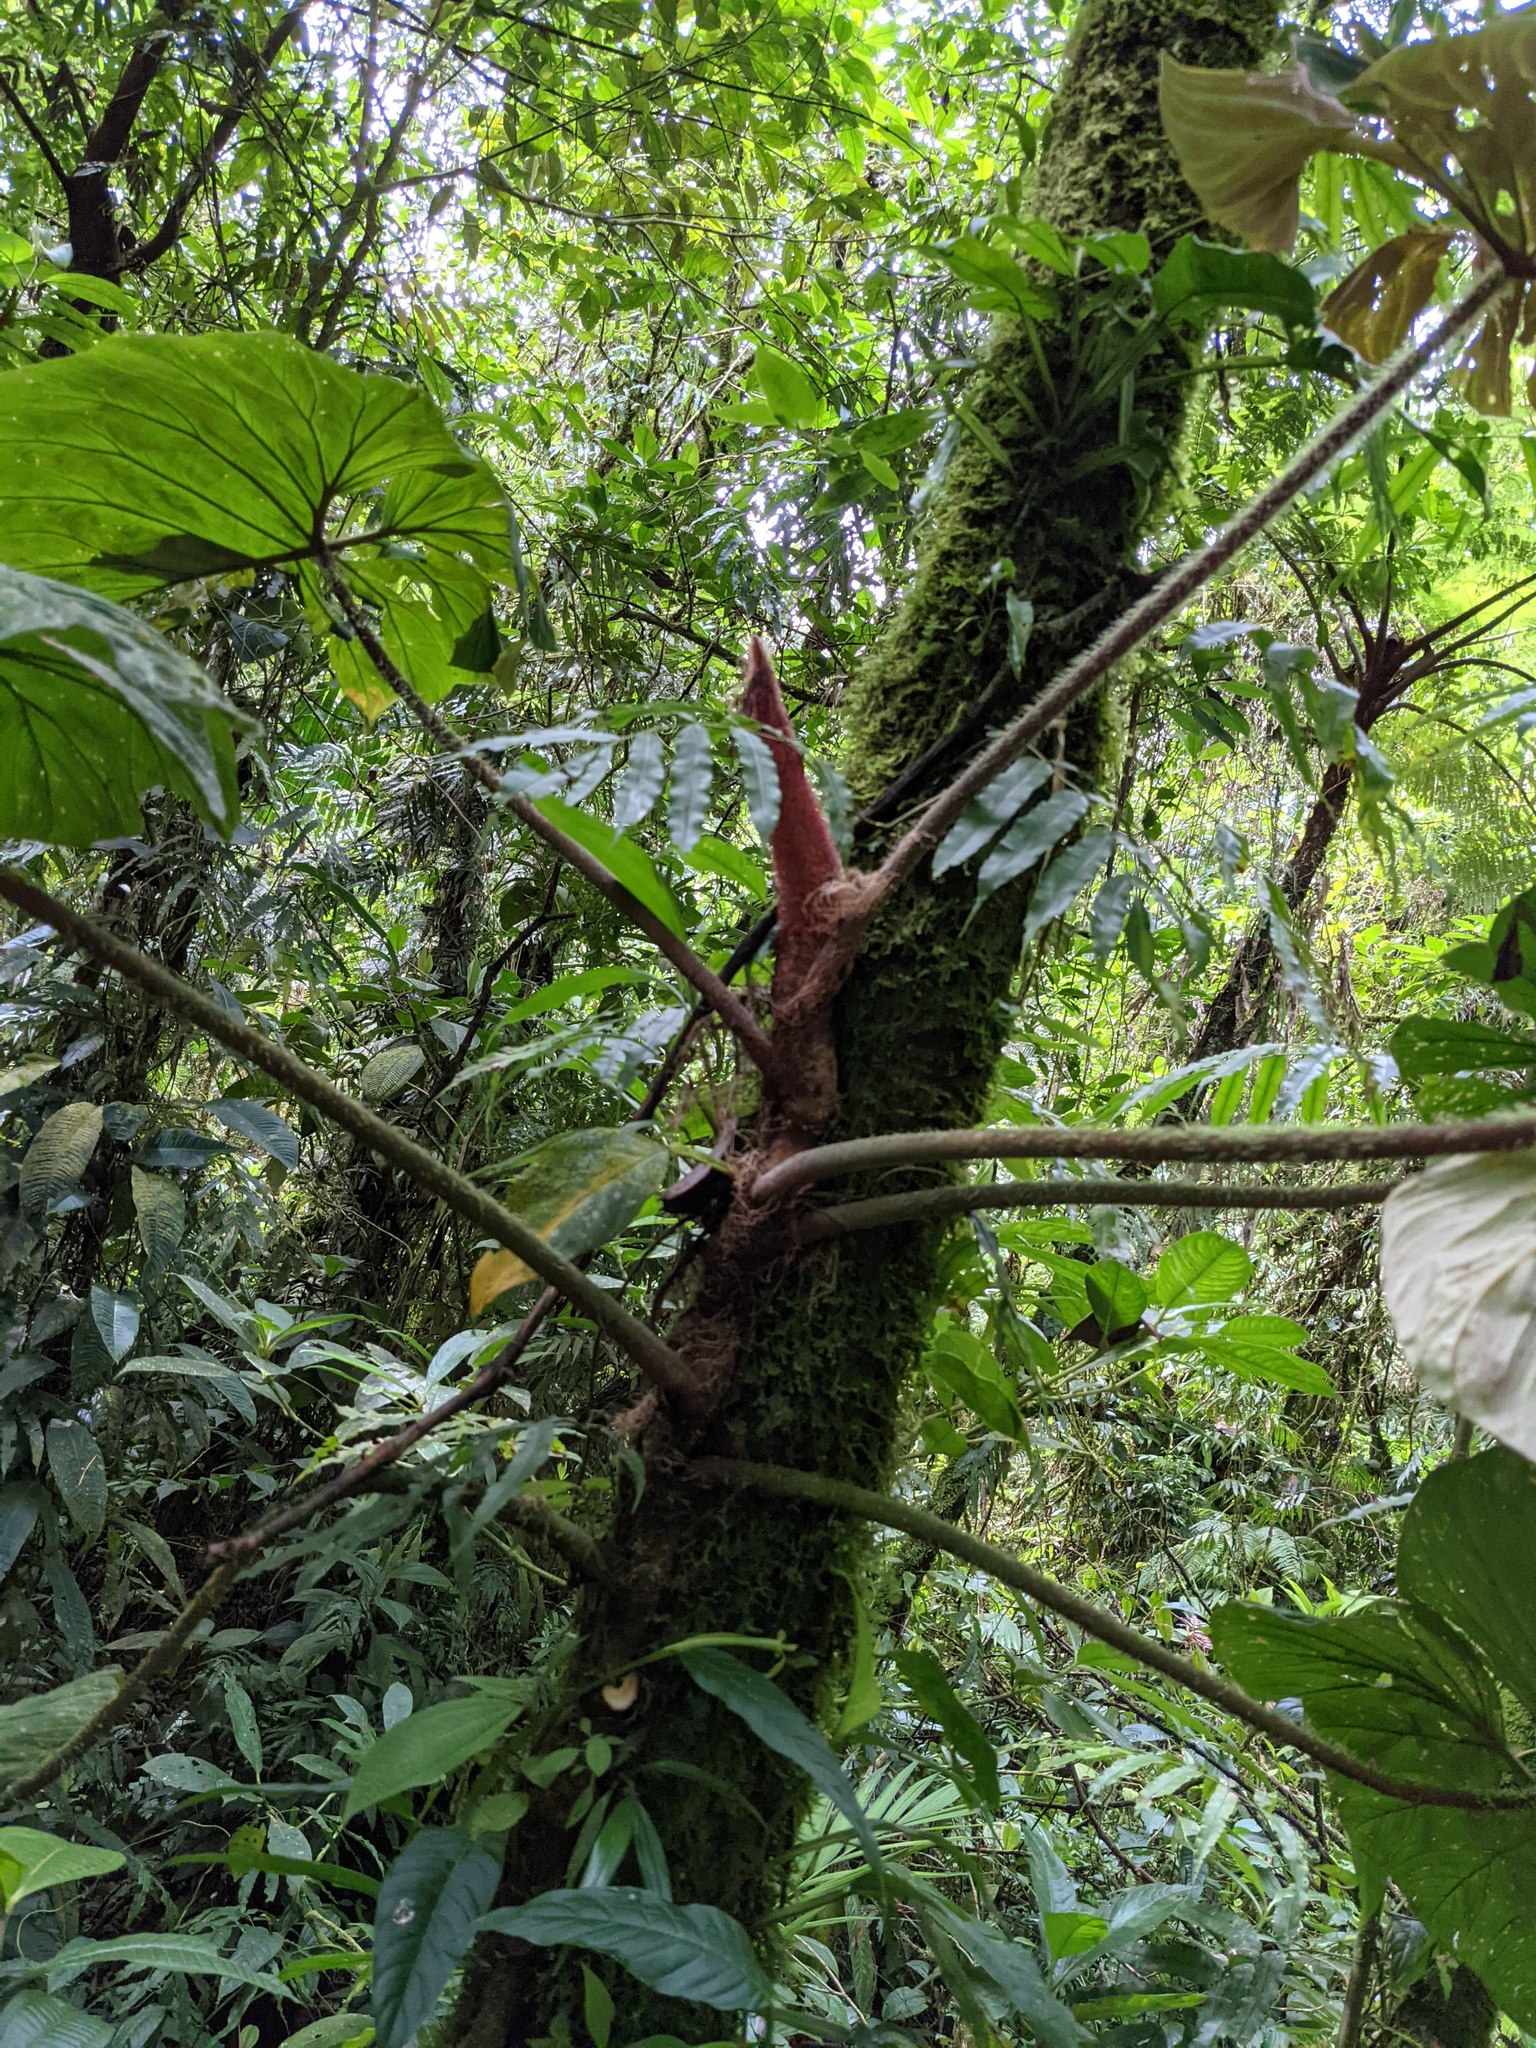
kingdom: Plantae
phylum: Tracheophyta
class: Liliopsida
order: Alismatales
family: Araceae
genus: Philodendron
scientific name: Philodendron verrucosum
